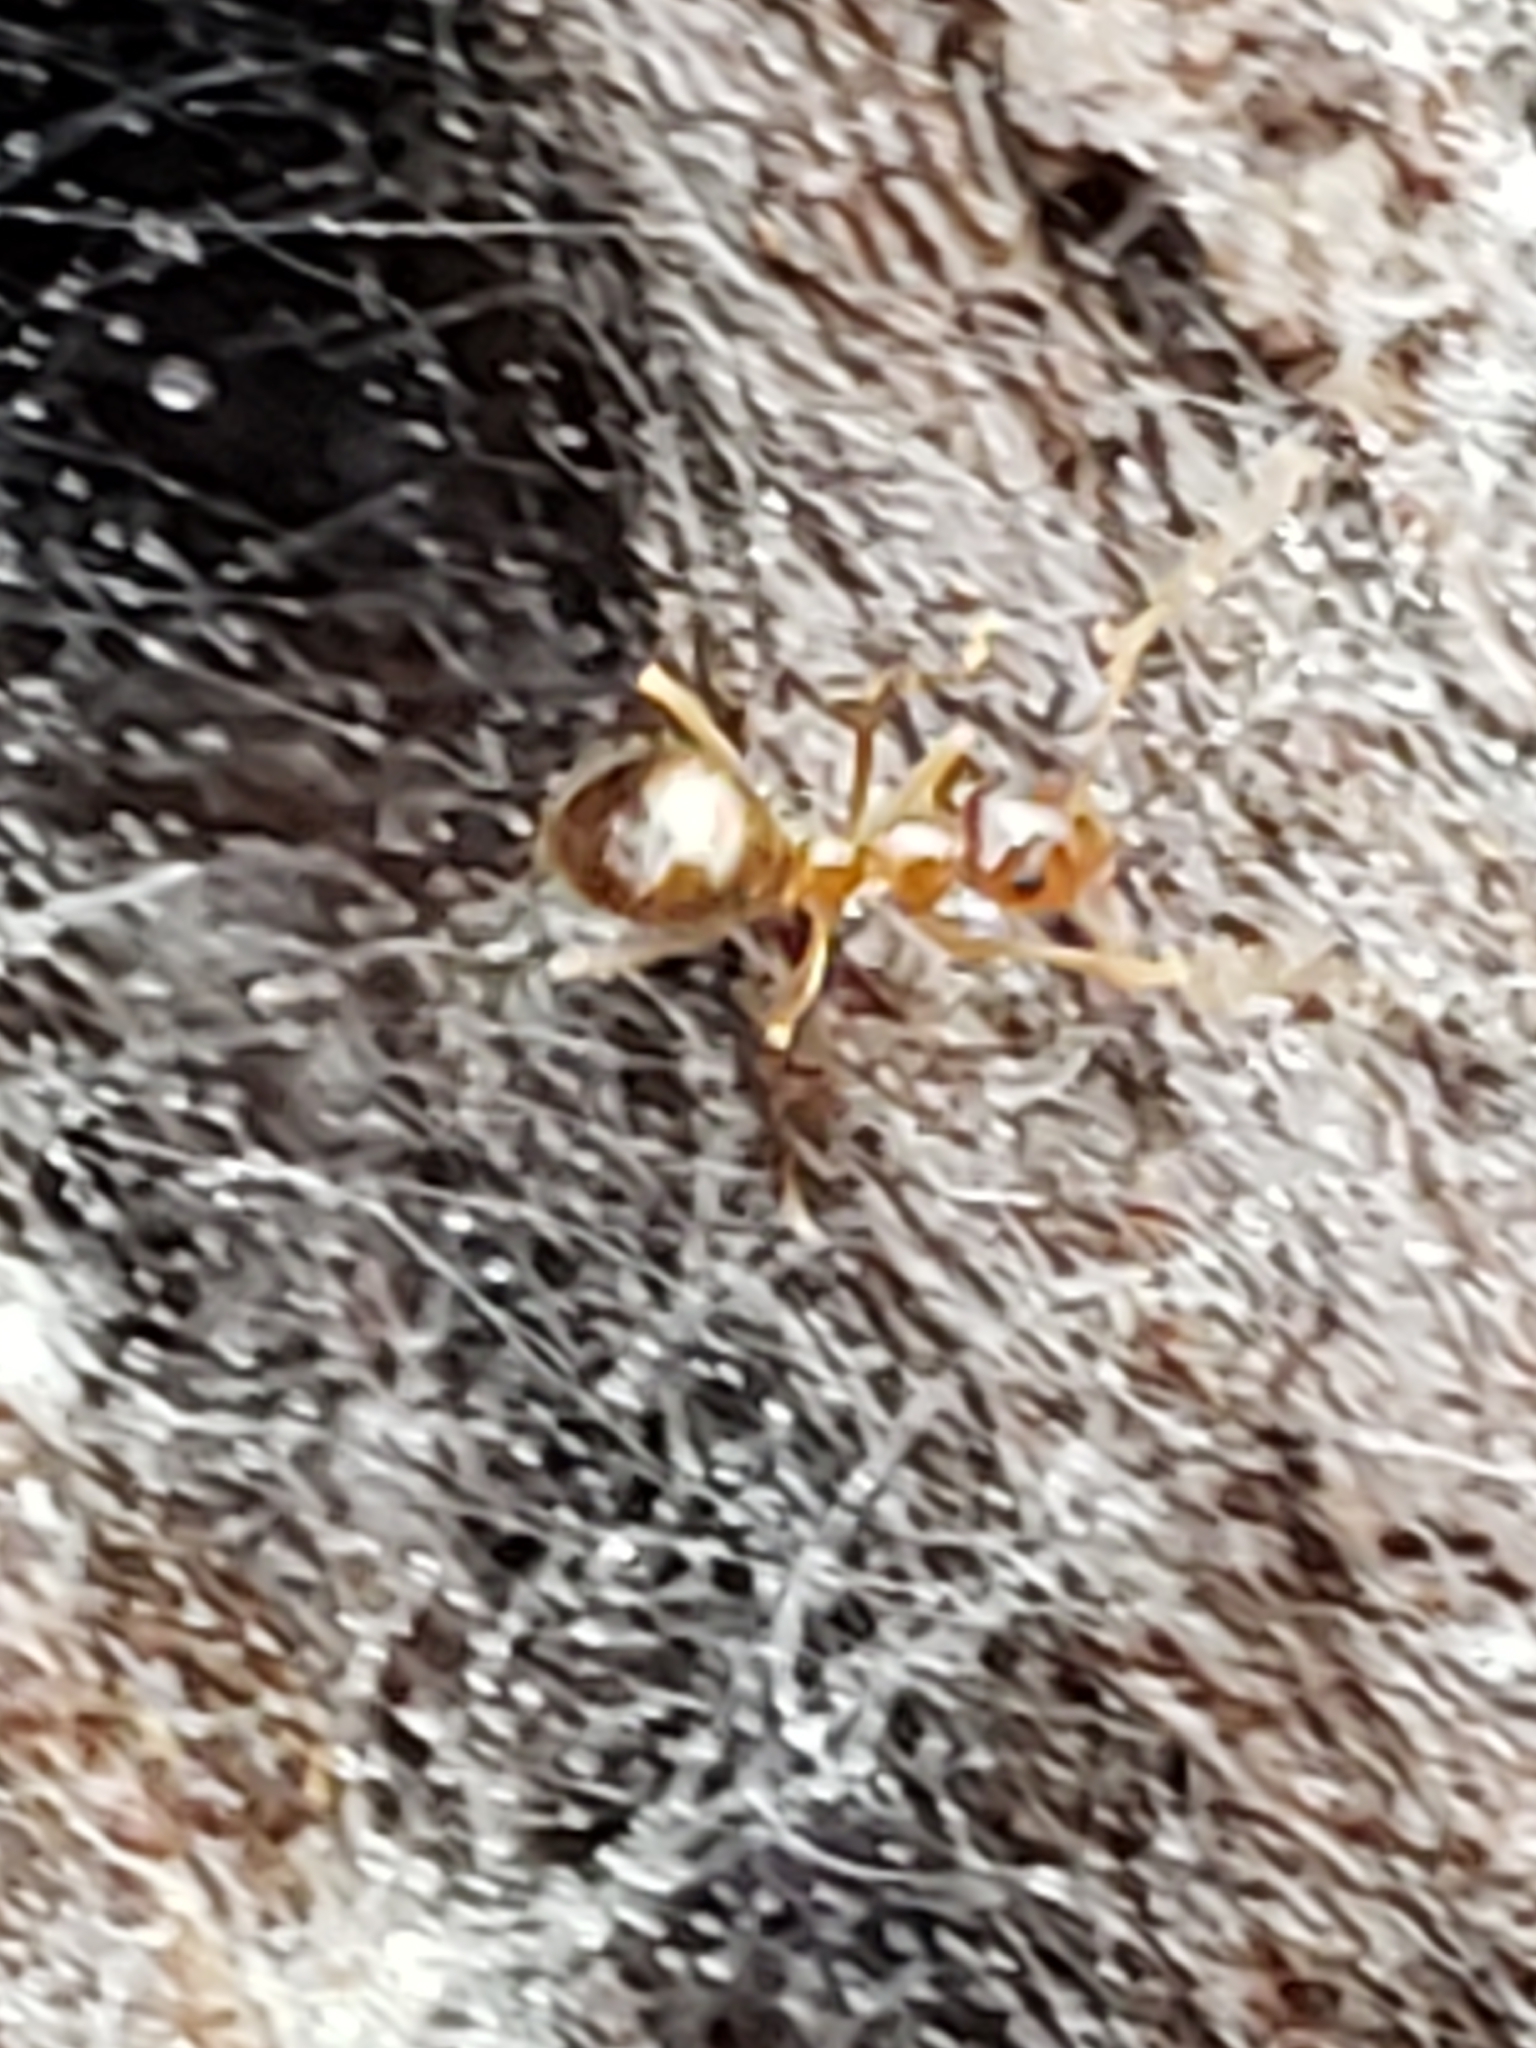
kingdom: Animalia
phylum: Arthropoda
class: Insecta
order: Hymenoptera
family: Formicidae
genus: Prenolepis
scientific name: Prenolepis imparis
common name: Small honey ant
